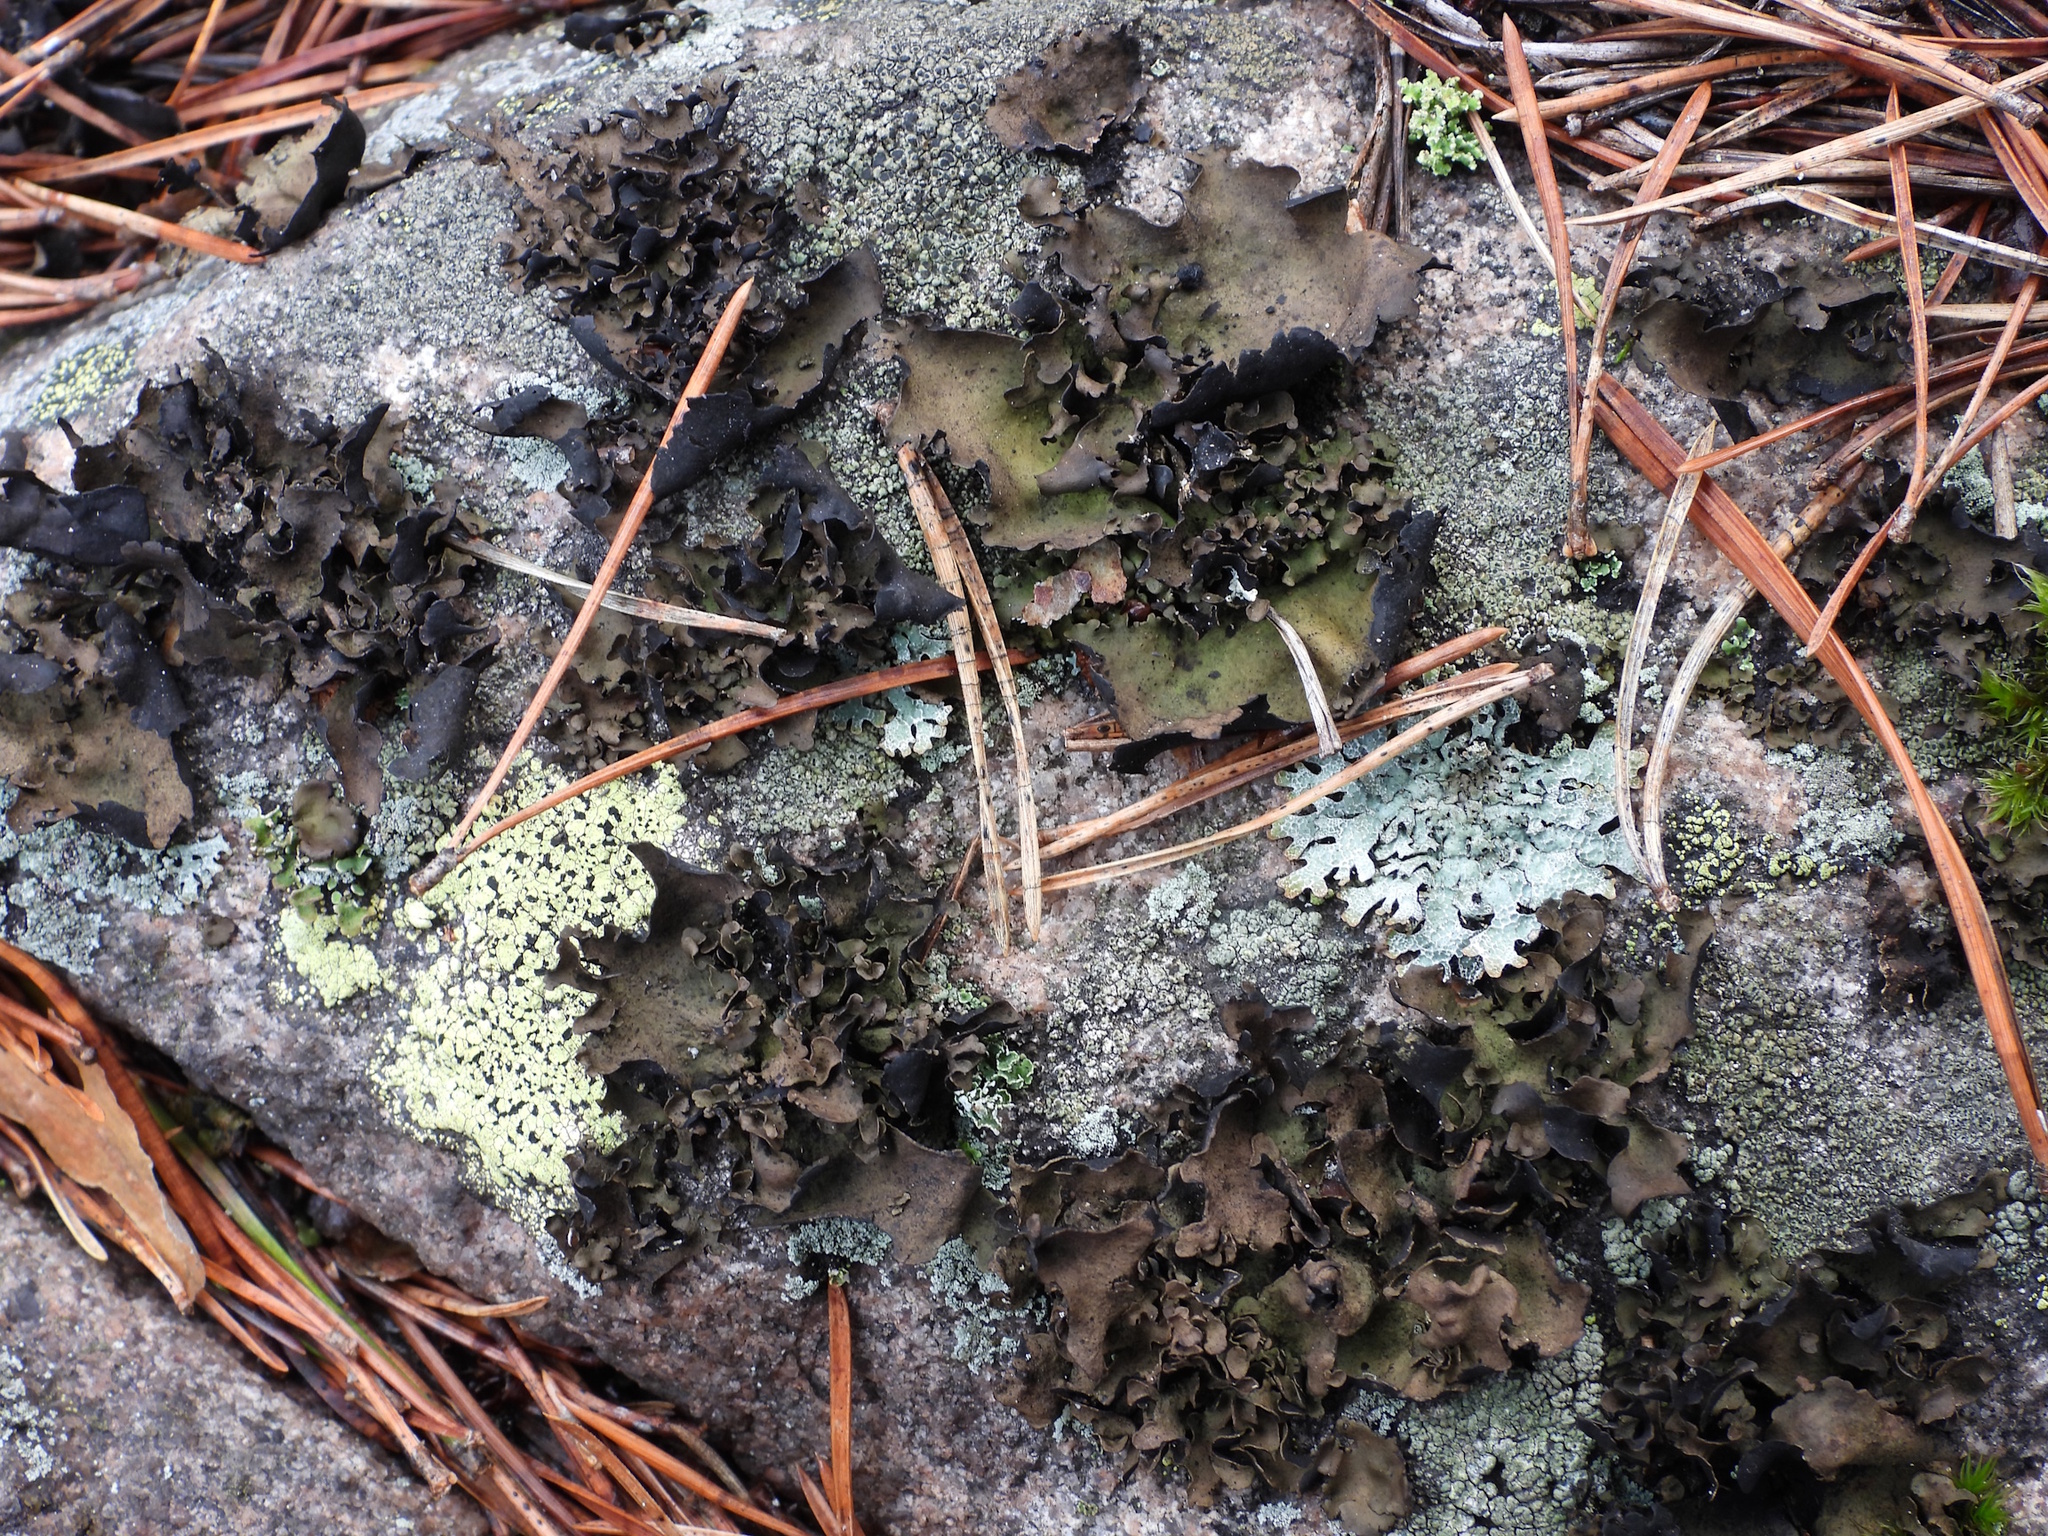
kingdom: Fungi
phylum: Ascomycota
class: Lecanoromycetes
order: Umbilicariales
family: Umbilicariaceae
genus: Umbilicaria
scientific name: Umbilicaria polyphylla
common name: Petalled rocktripe lichen
